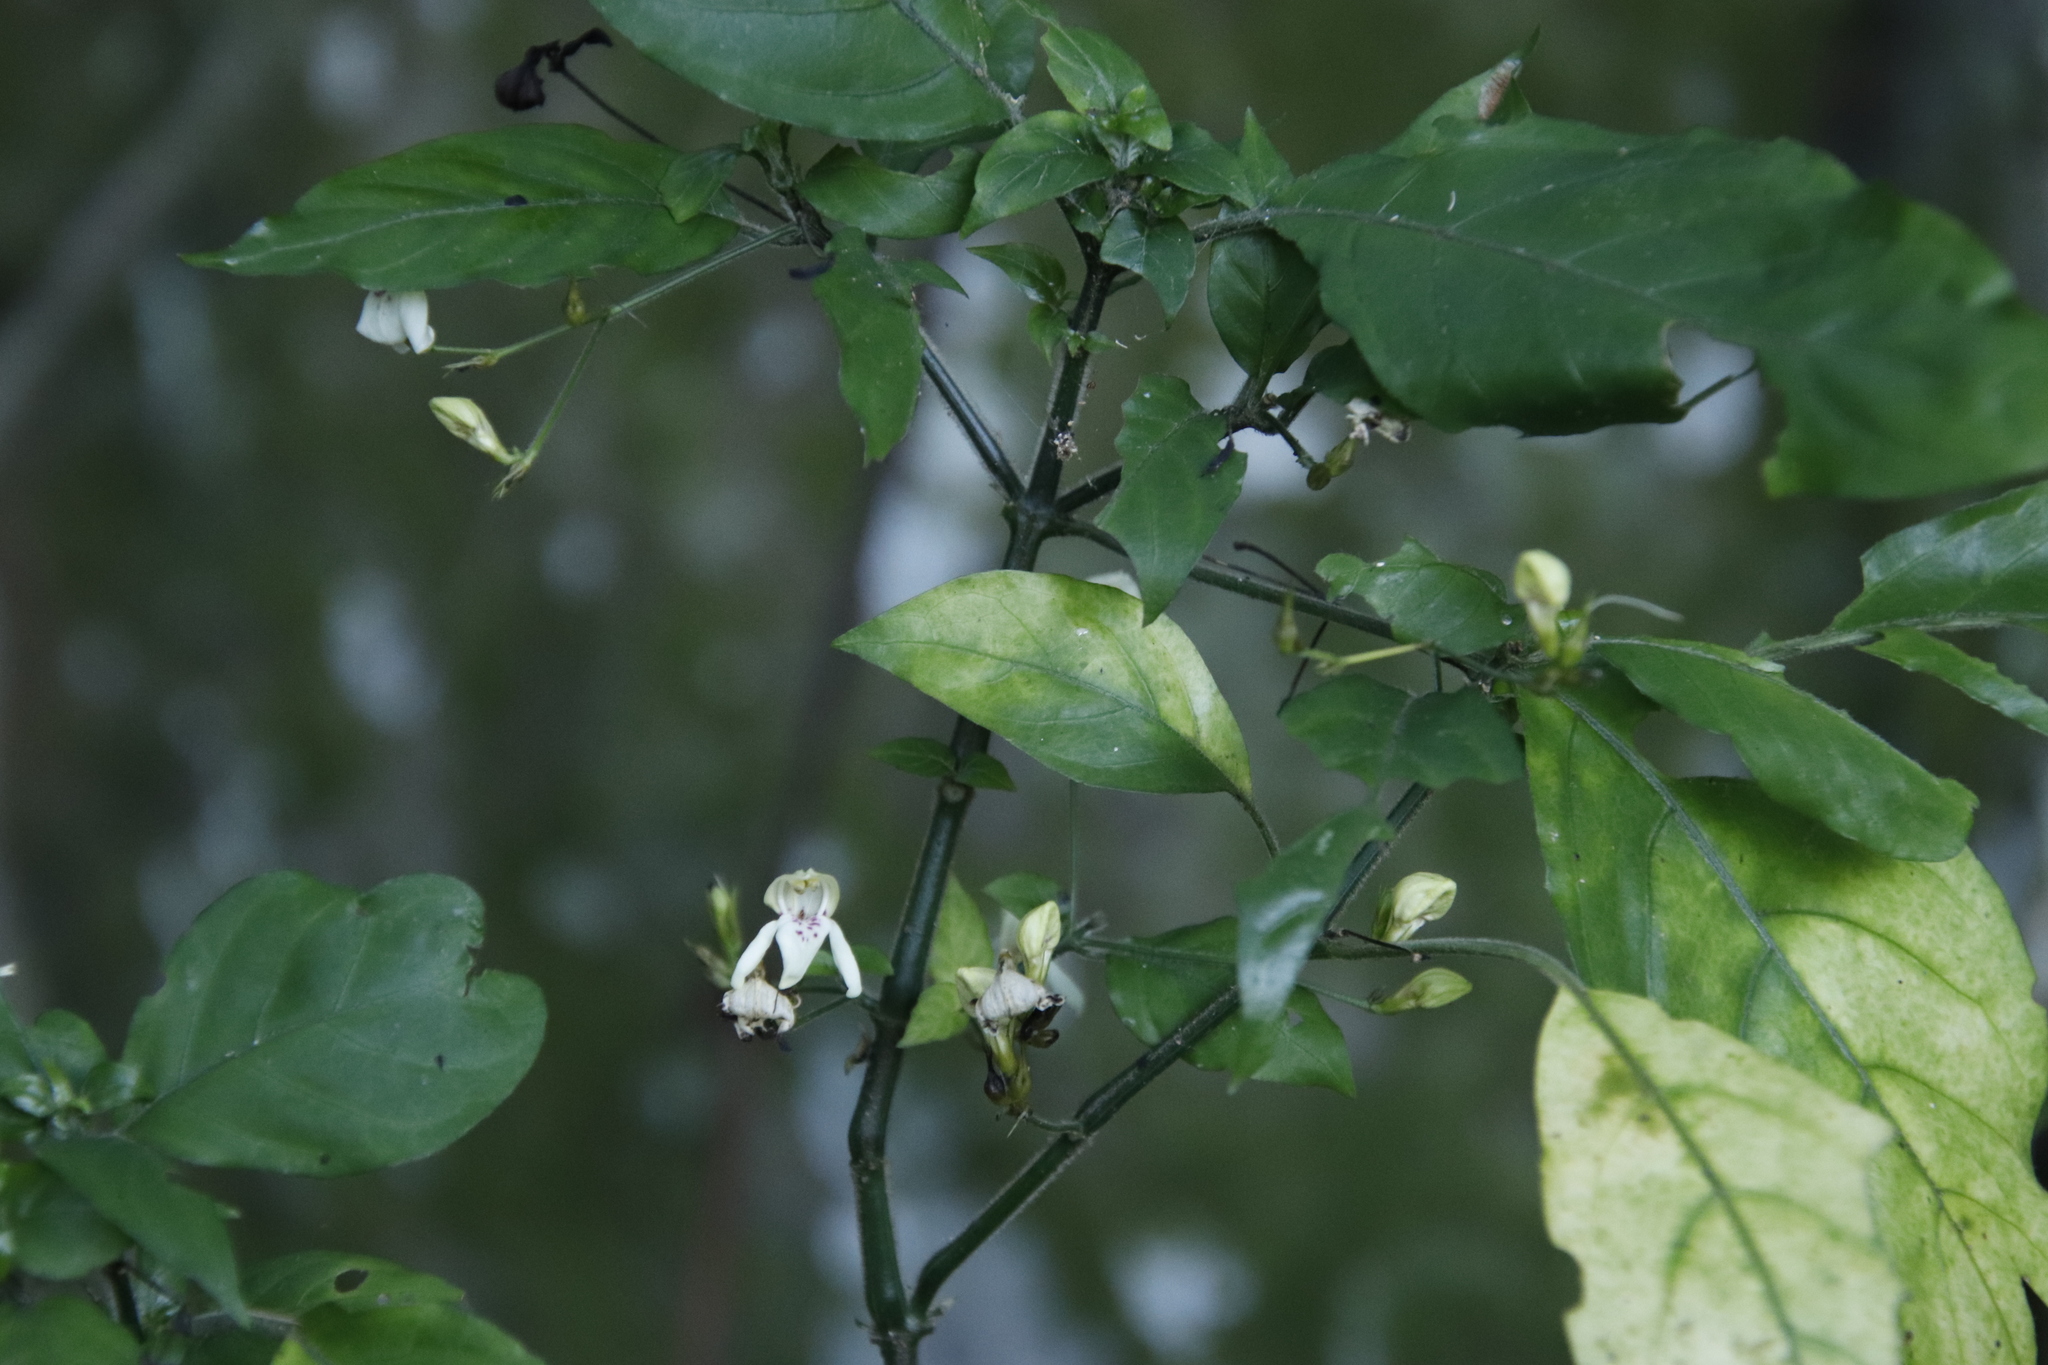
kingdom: Plantae
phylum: Tracheophyta
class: Magnoliopsida
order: Lamiales
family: Acanthaceae
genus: Justicia
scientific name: Justicia campylostemon
